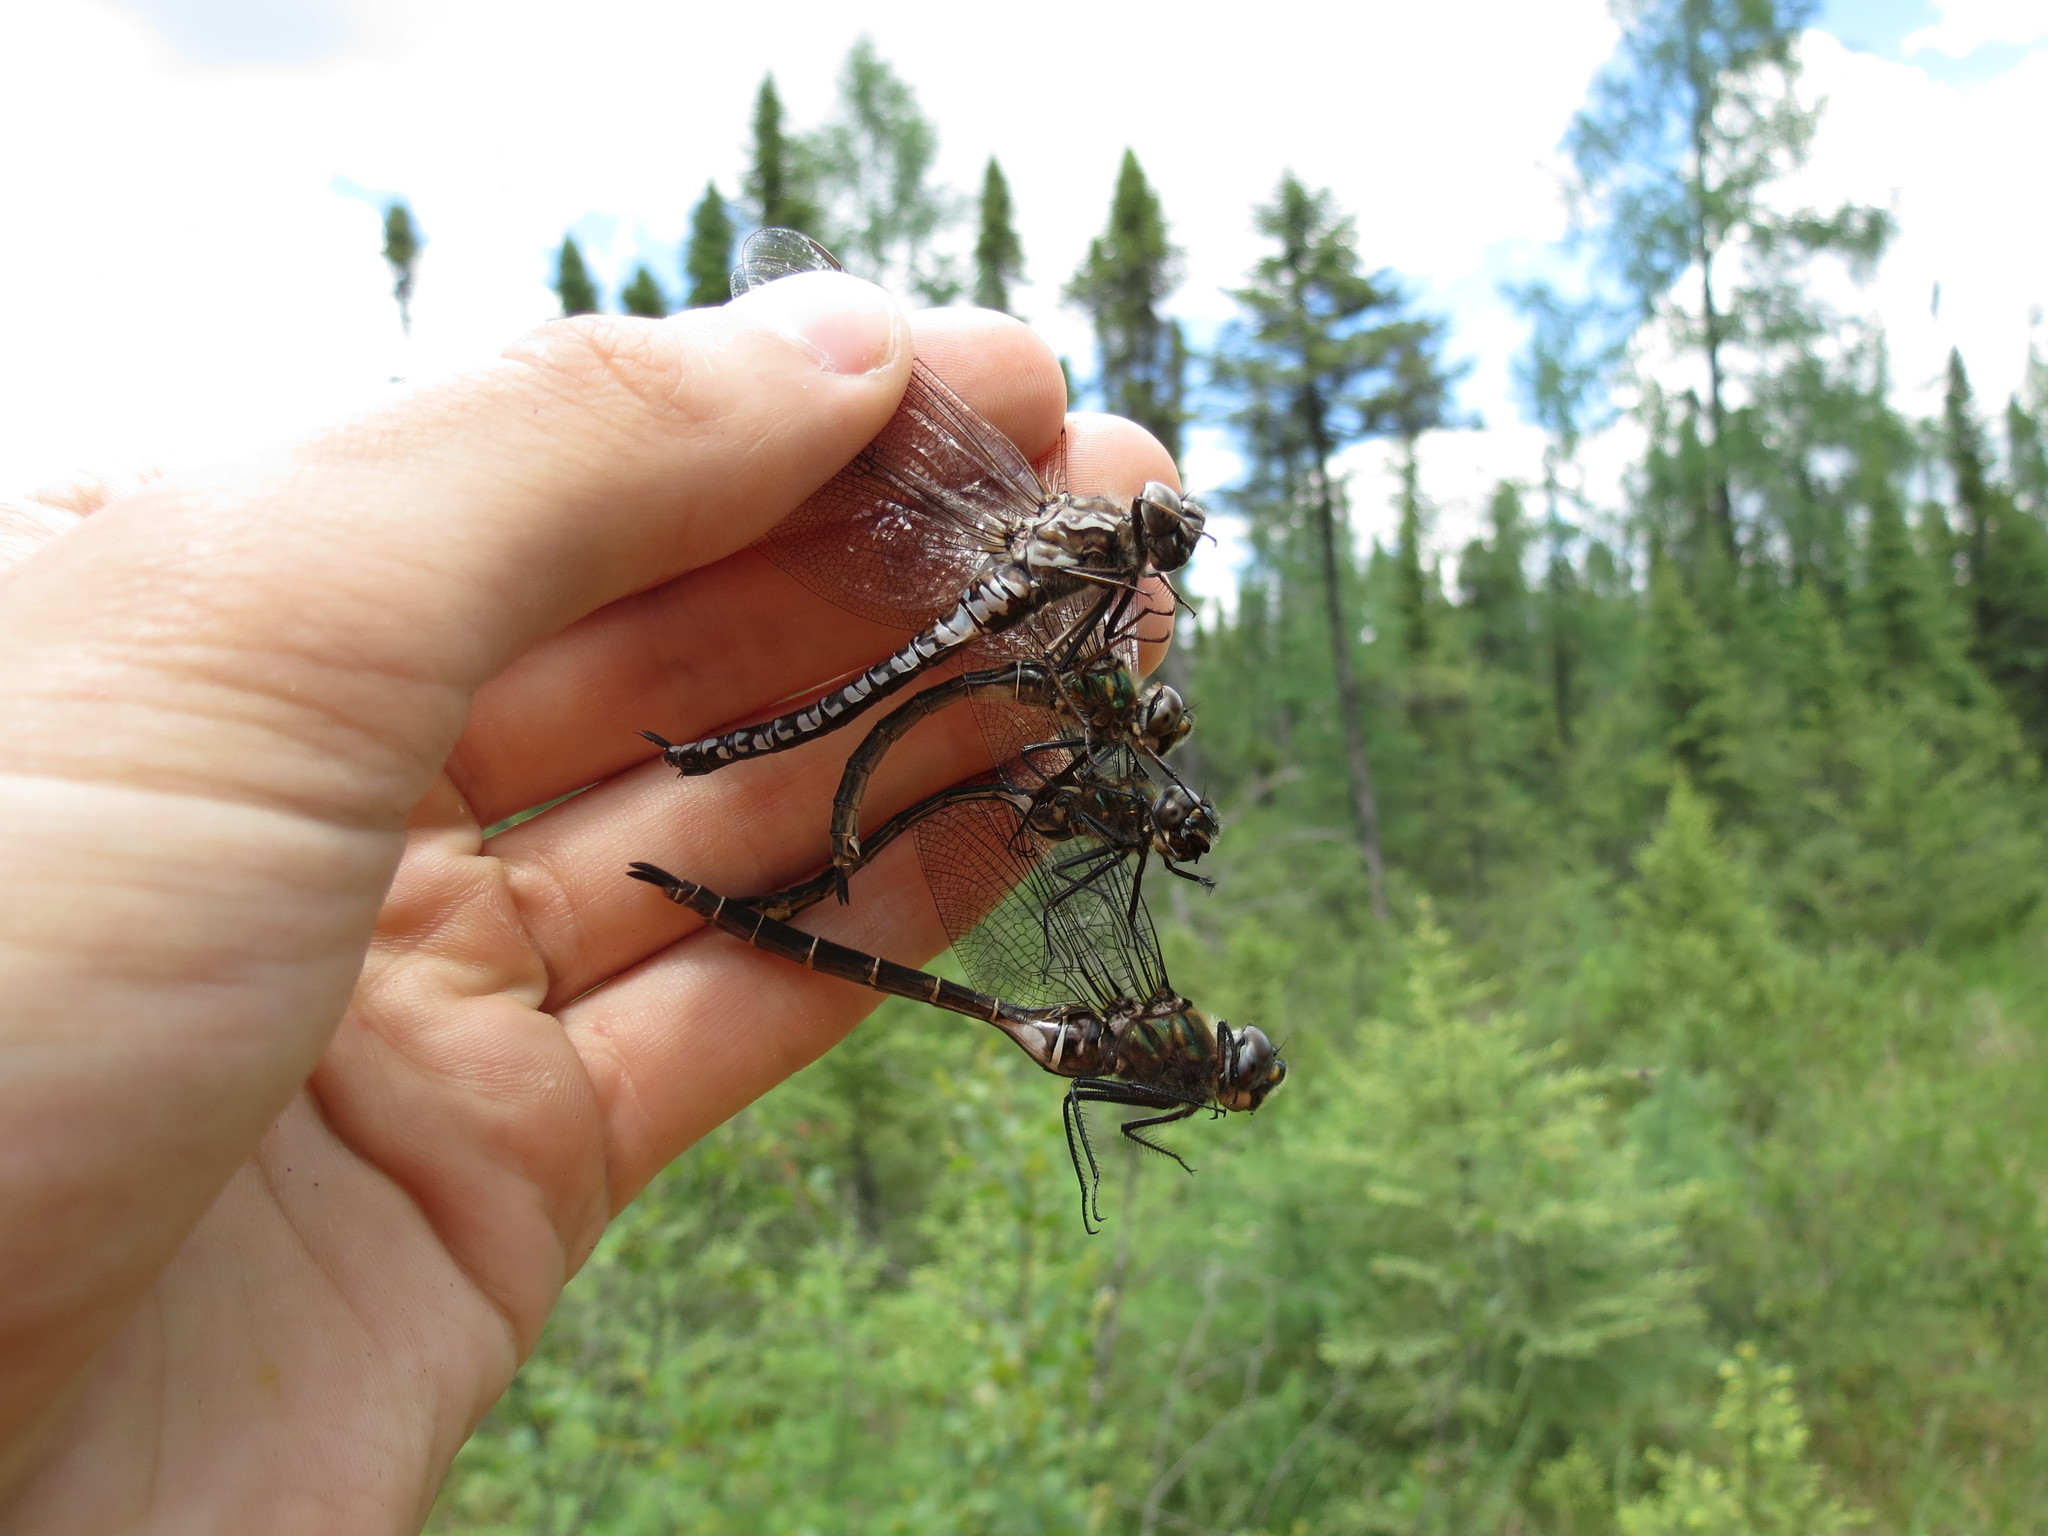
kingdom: Animalia
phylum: Arthropoda
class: Insecta
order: Odonata
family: Aeshnidae
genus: Aeshna
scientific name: Aeshna sitchensis
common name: Zigzag darner
